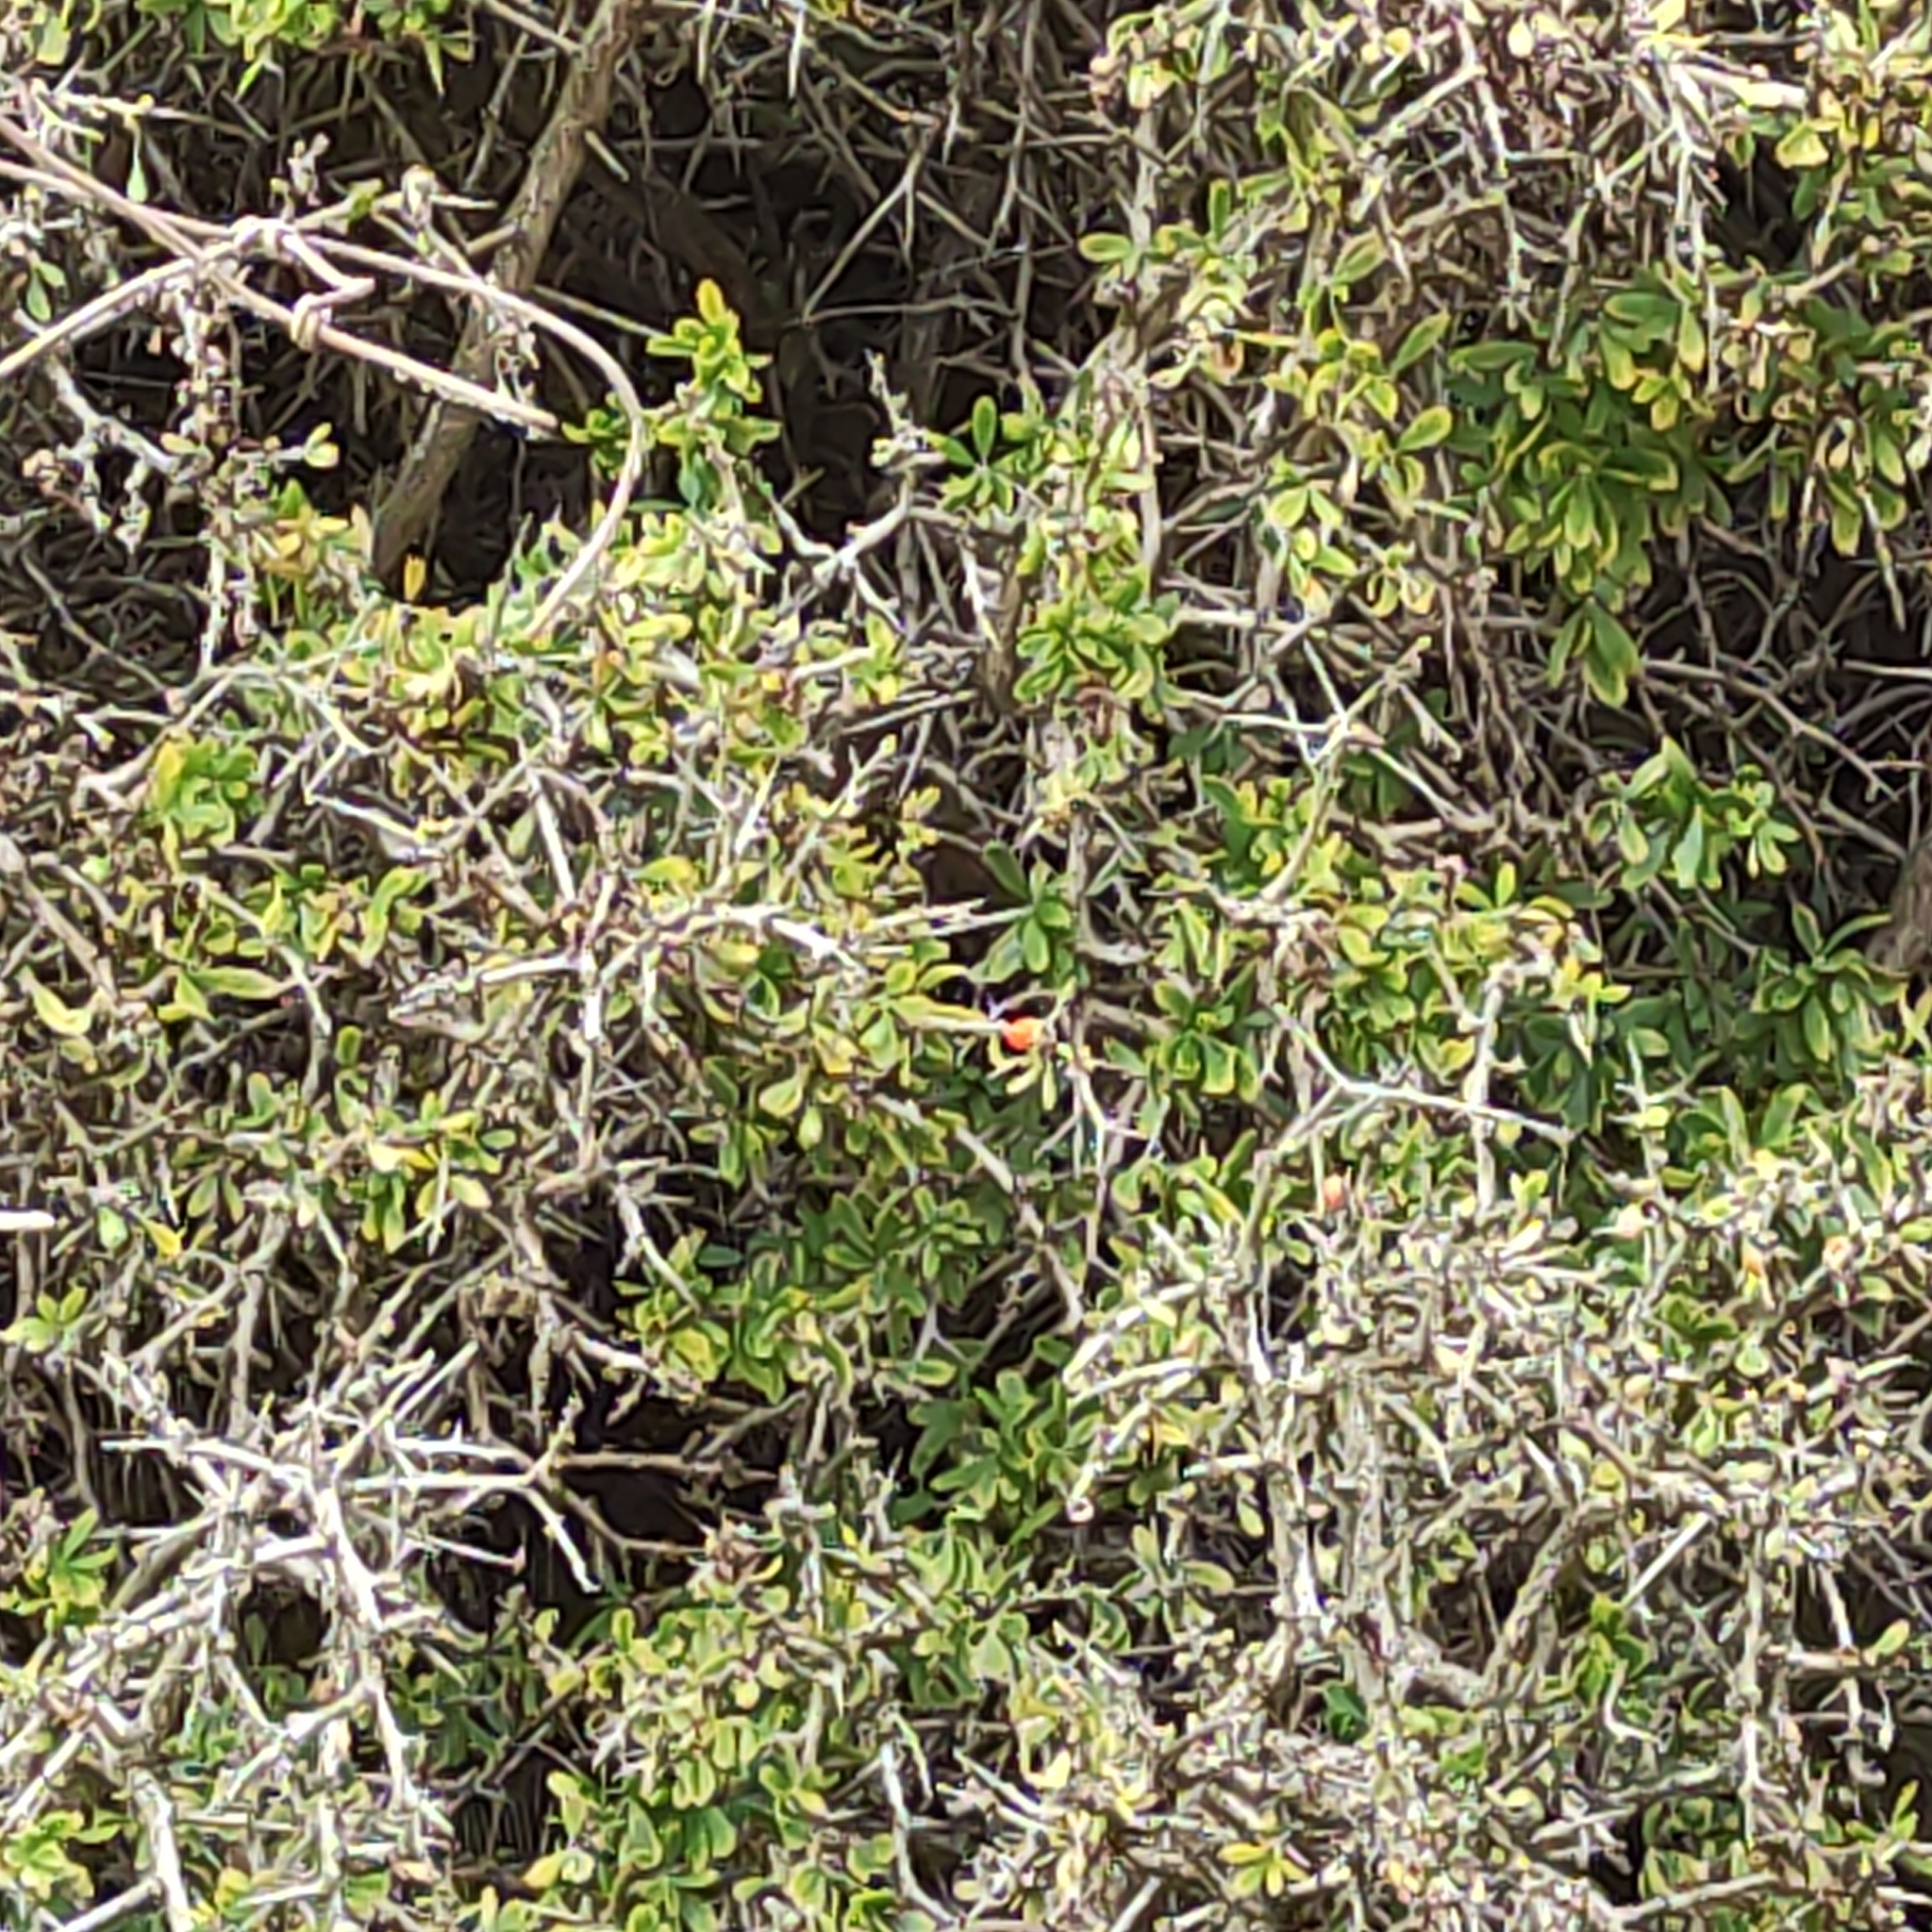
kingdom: Plantae
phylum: Tracheophyta
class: Magnoliopsida
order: Solanales
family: Solanaceae
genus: Lycium
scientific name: Lycium ferocissimum
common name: African boxthorn
